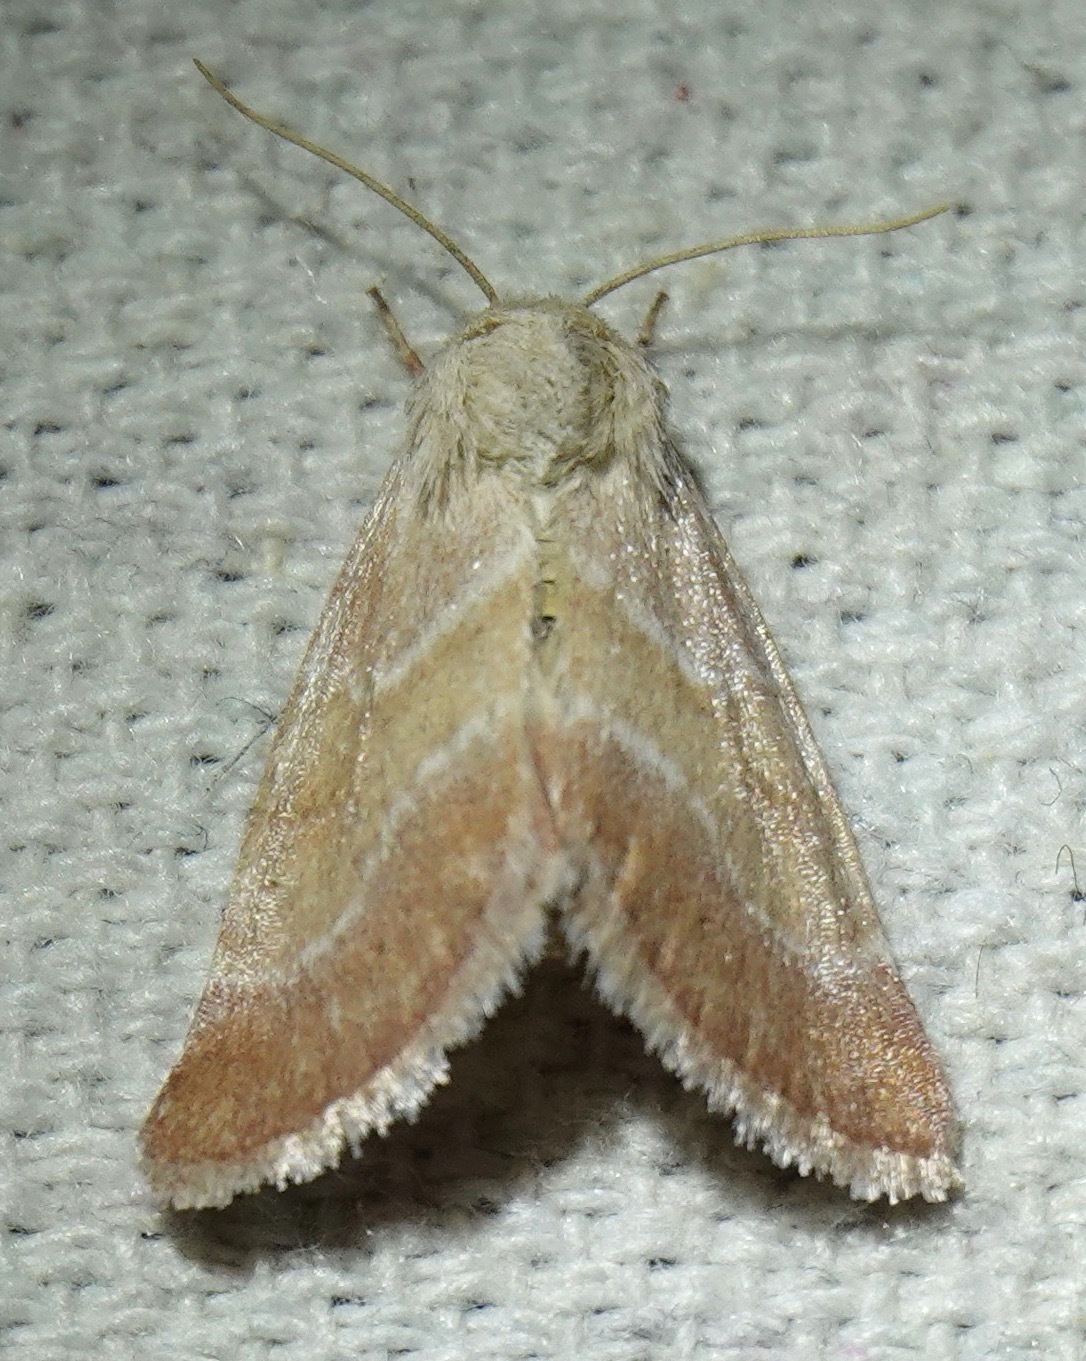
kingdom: Animalia
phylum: Arthropoda
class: Insecta
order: Lepidoptera
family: Noctuidae
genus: Schinia
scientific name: Schinia buta
